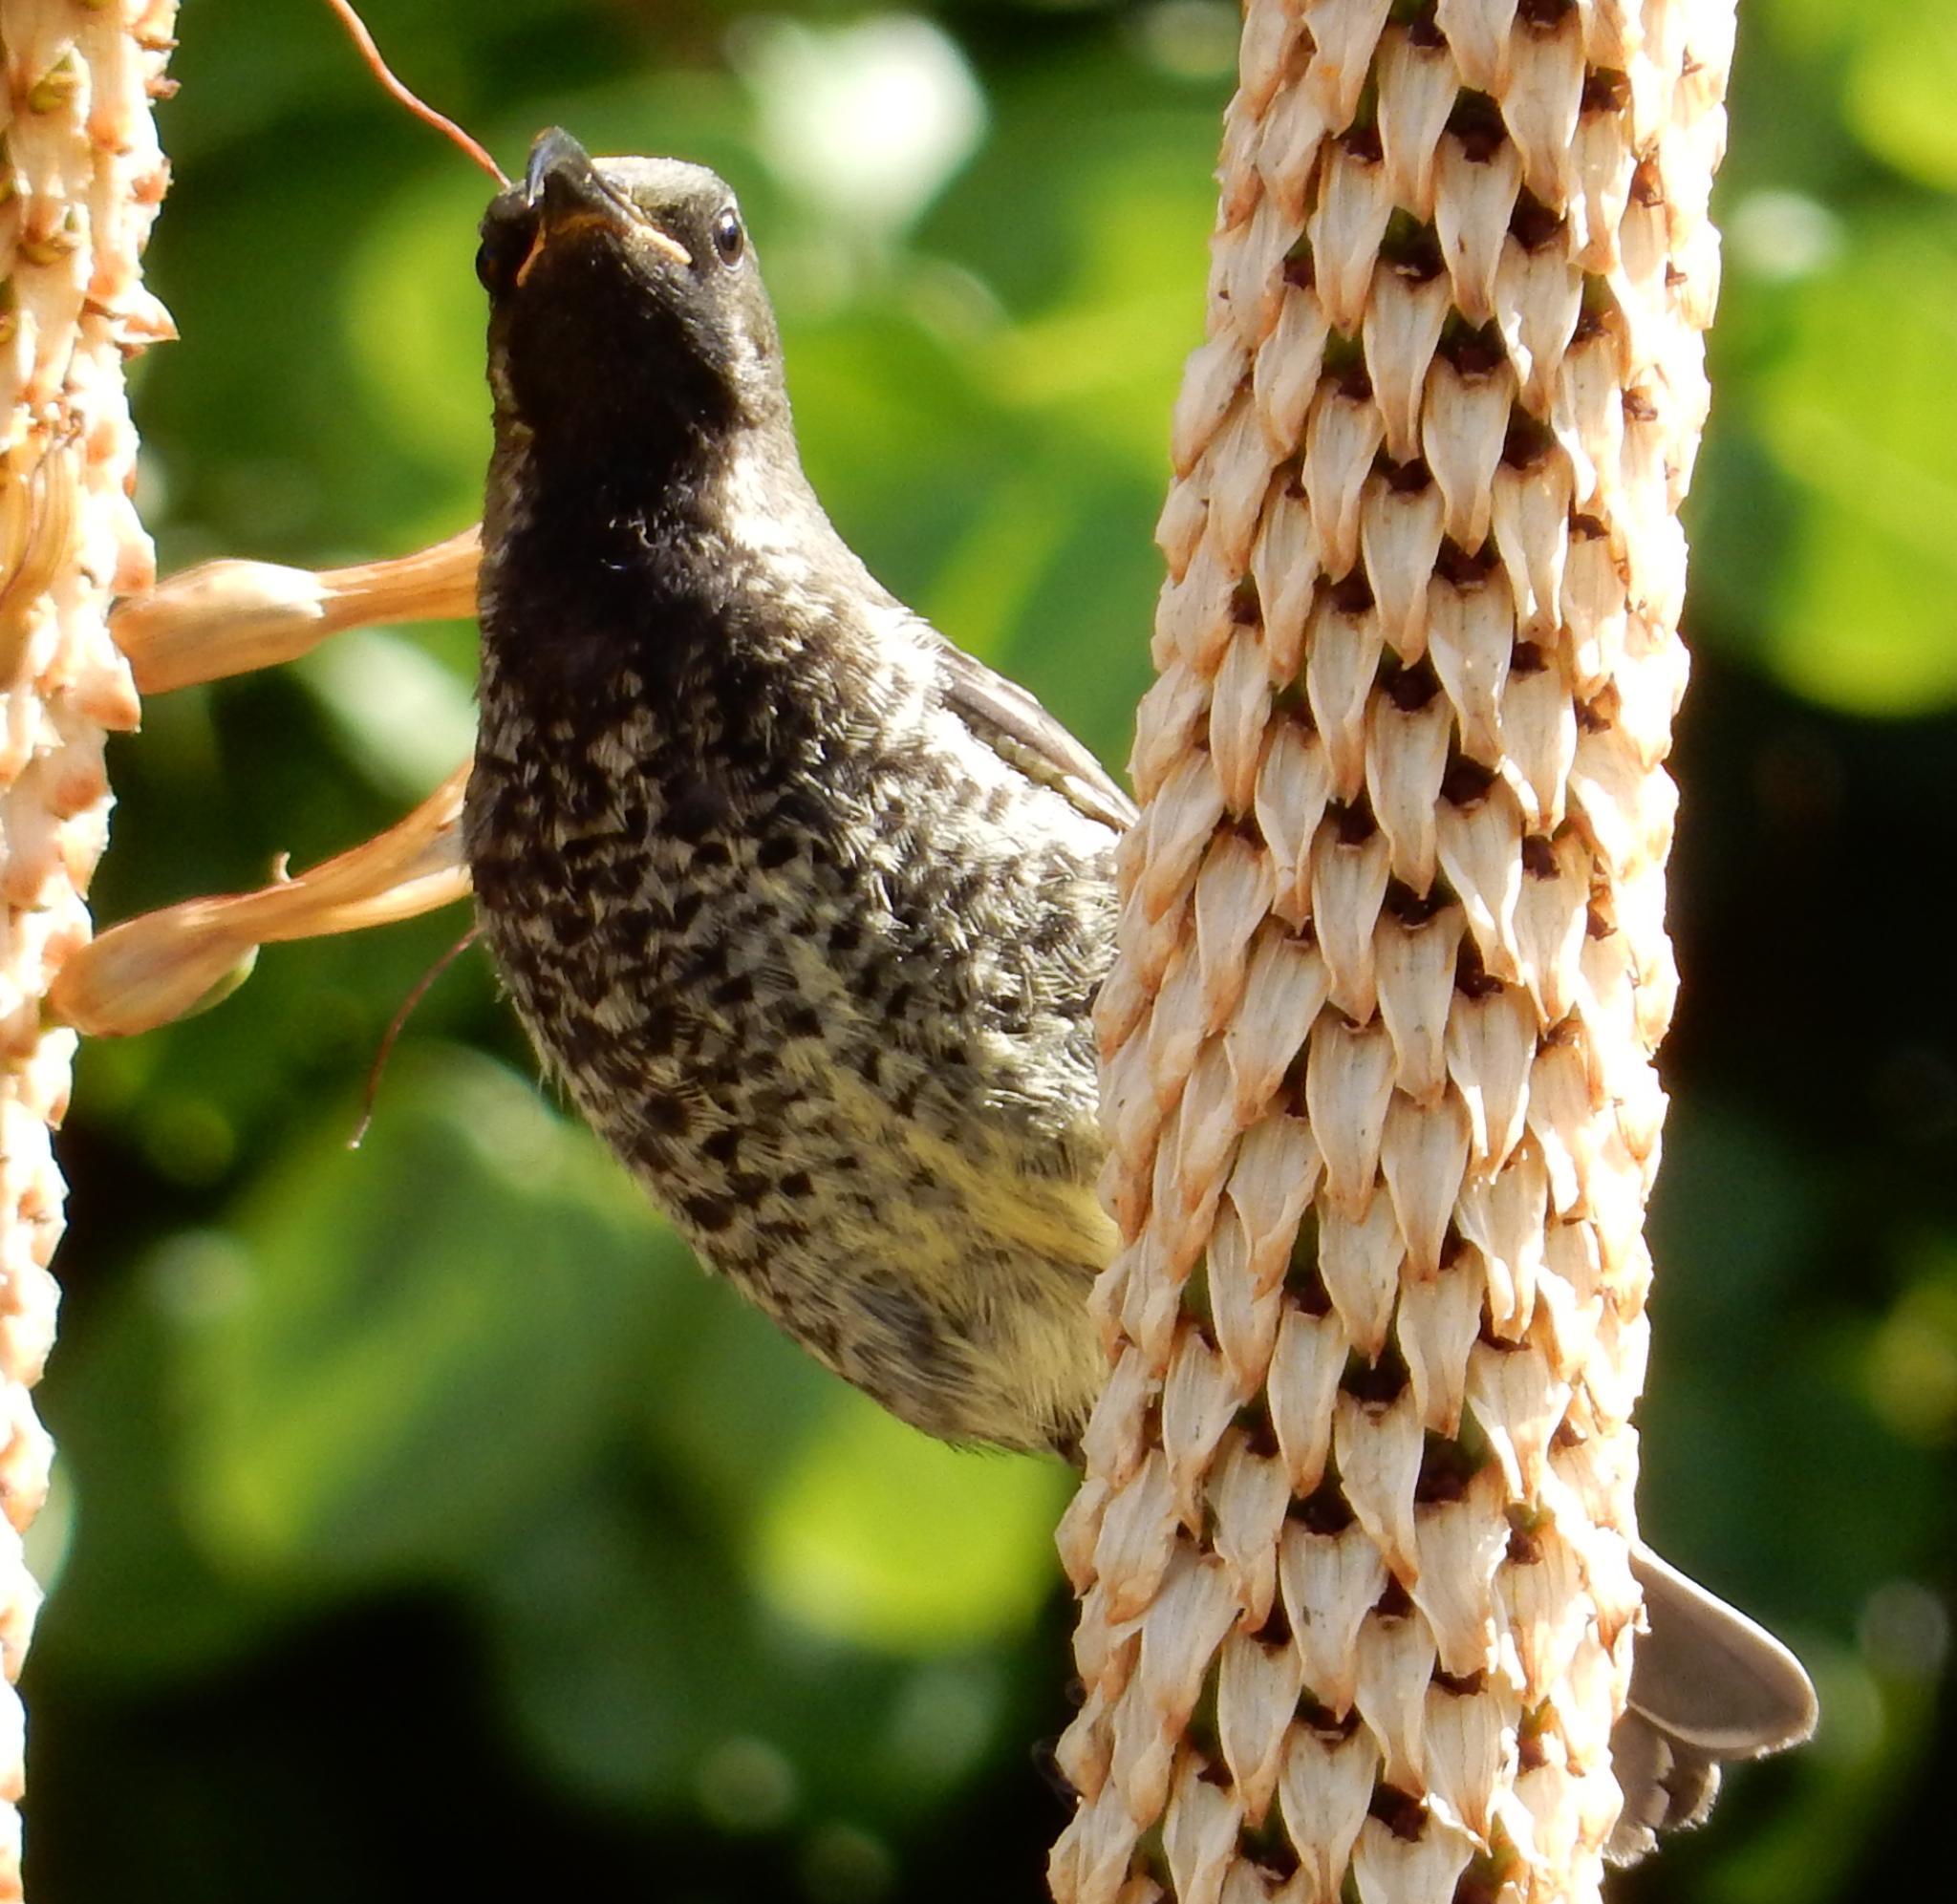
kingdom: Animalia
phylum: Chordata
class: Aves
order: Passeriformes
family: Nectariniidae
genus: Chalcomitra
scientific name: Chalcomitra amethystina
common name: Amethyst sunbird
